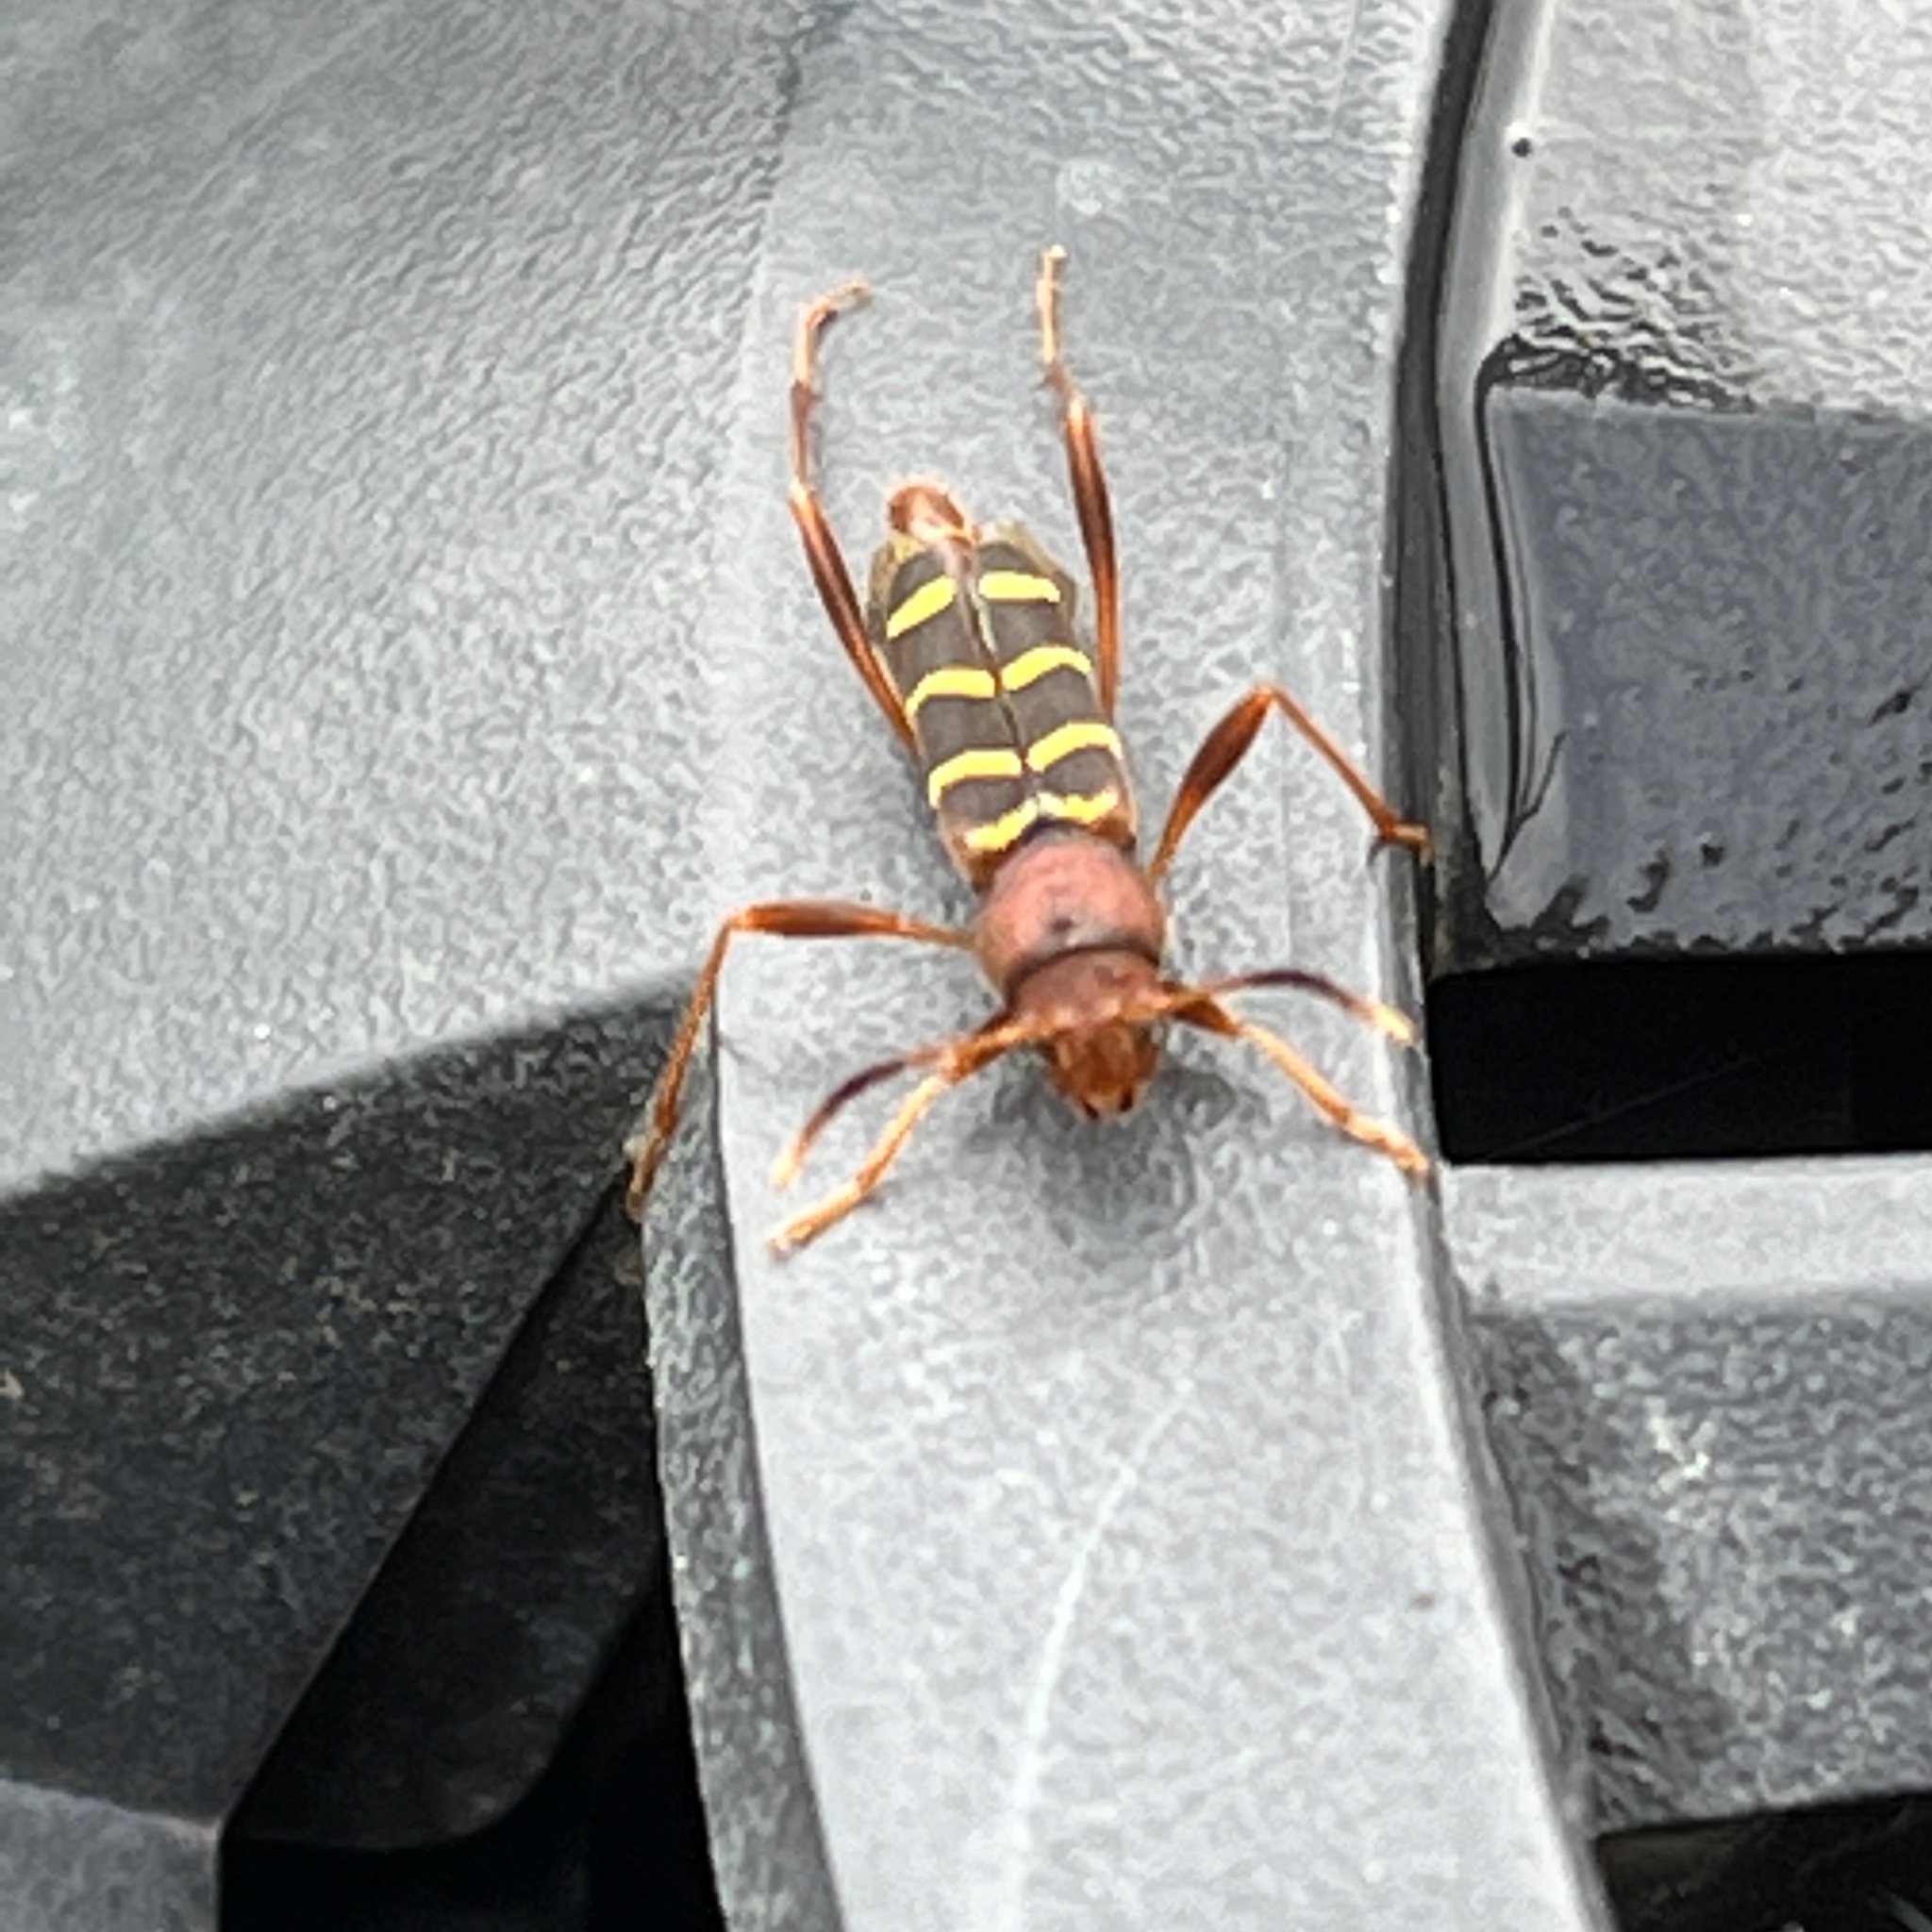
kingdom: Animalia
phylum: Arthropoda
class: Insecta
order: Coleoptera
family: Cerambycidae
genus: Neoclytus
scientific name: Neoclytus acuminatus
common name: Read-headed ash borer
